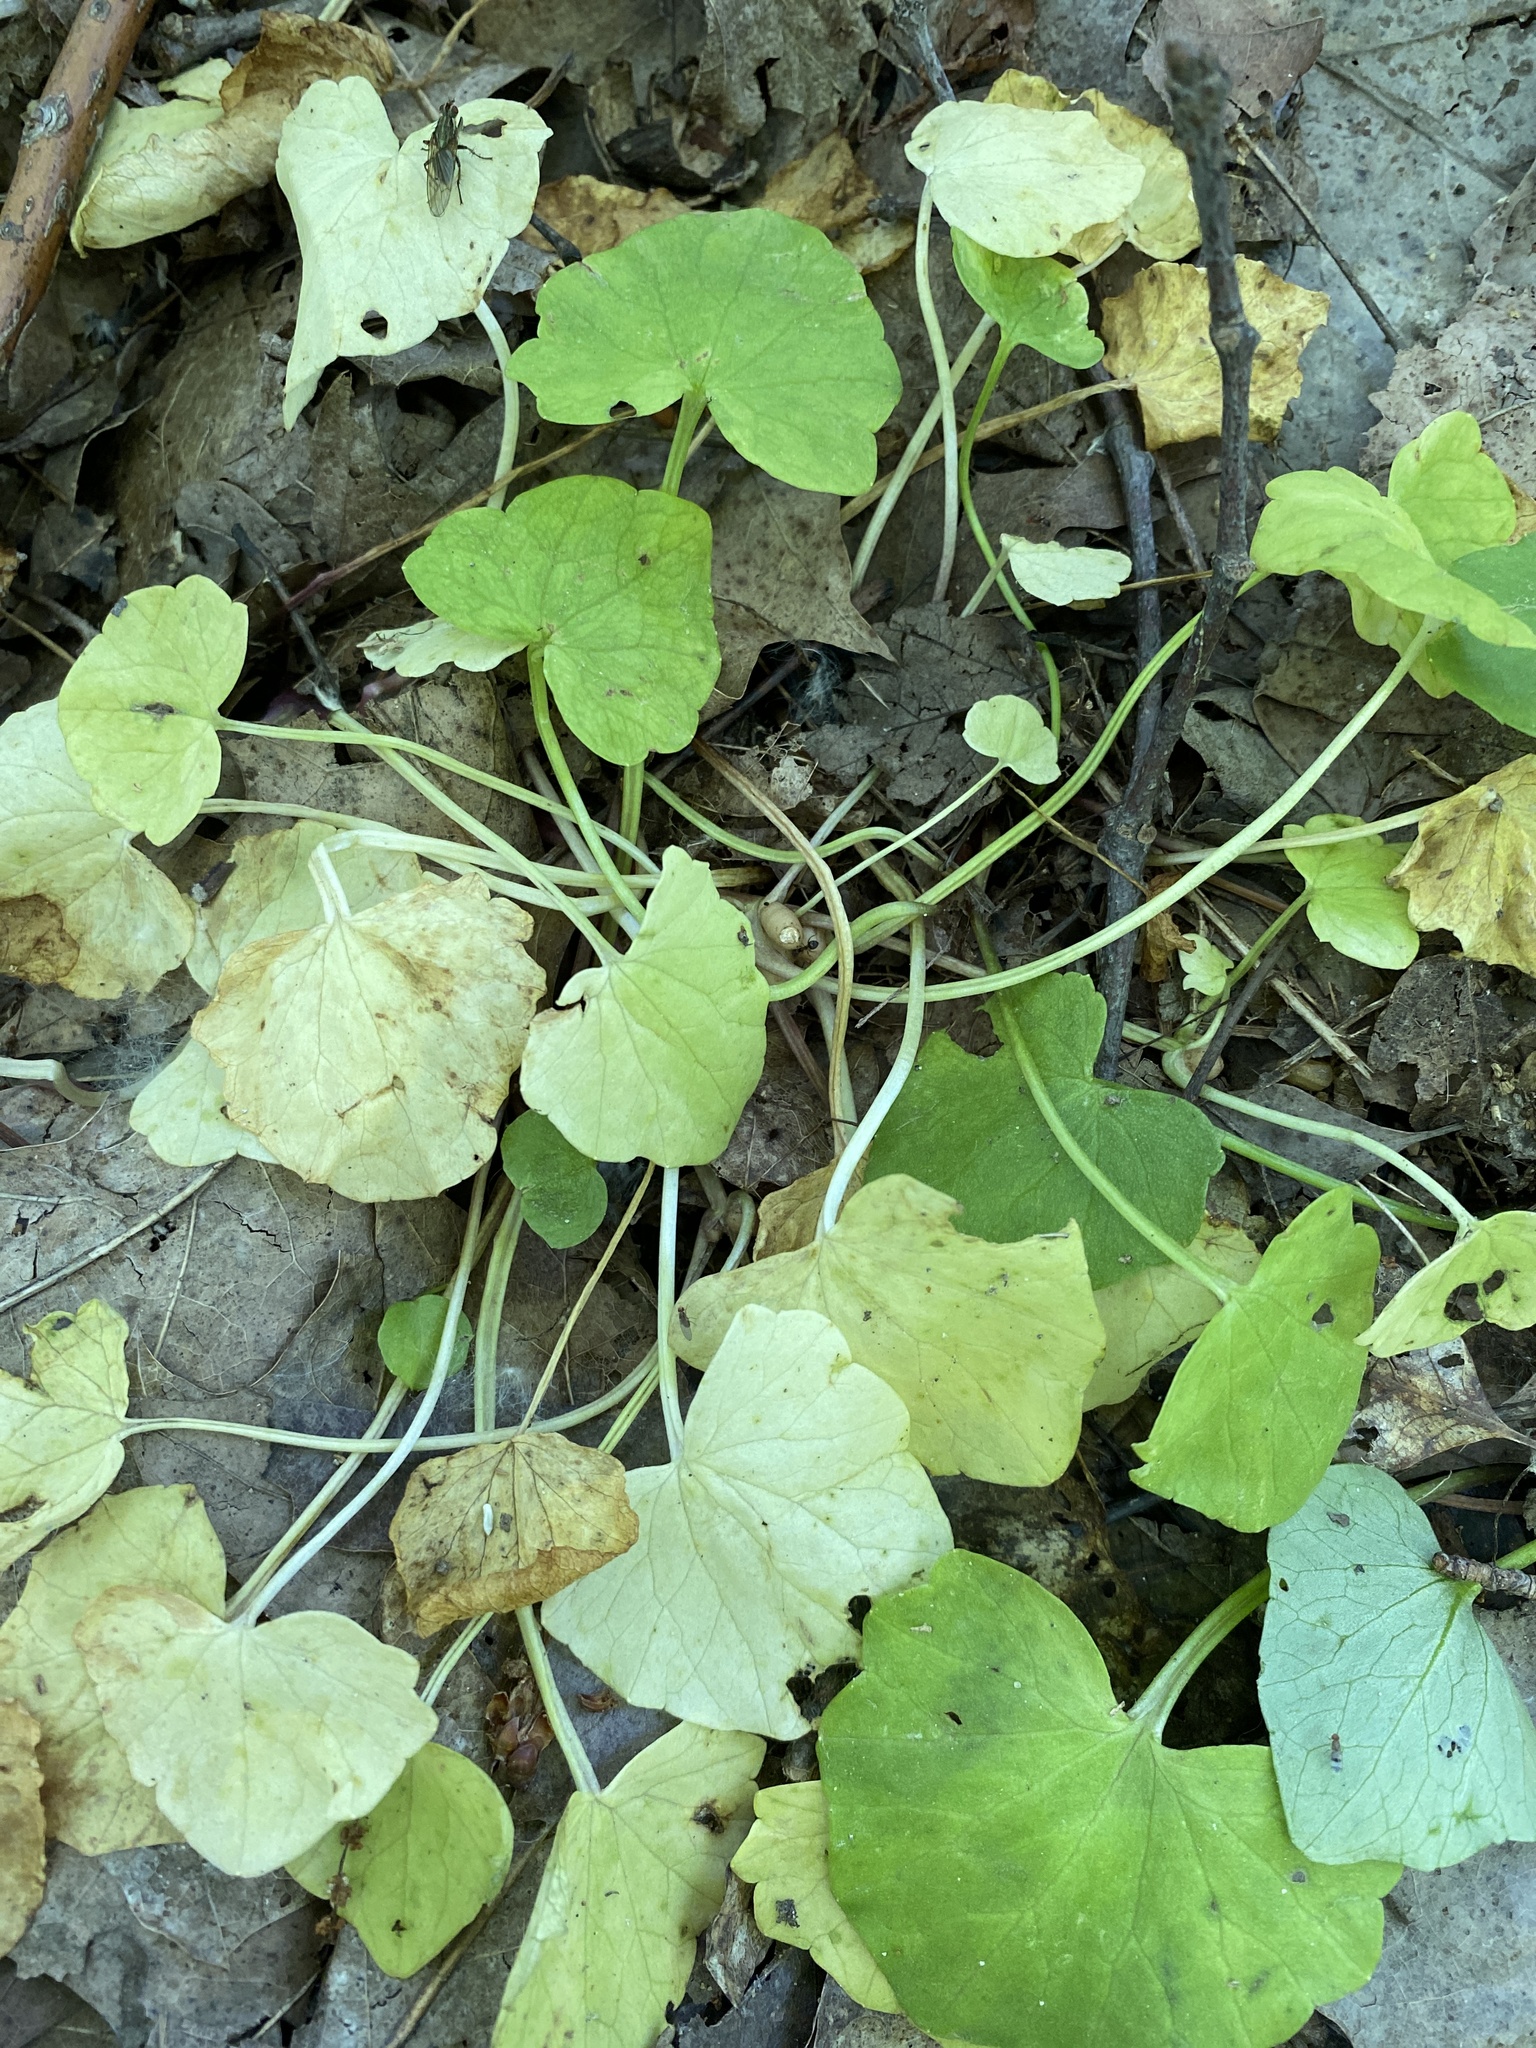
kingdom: Plantae
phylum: Tracheophyta
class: Magnoliopsida
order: Brassicales
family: Brassicaceae
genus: Alliaria
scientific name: Alliaria petiolata
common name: Garlic mustard
